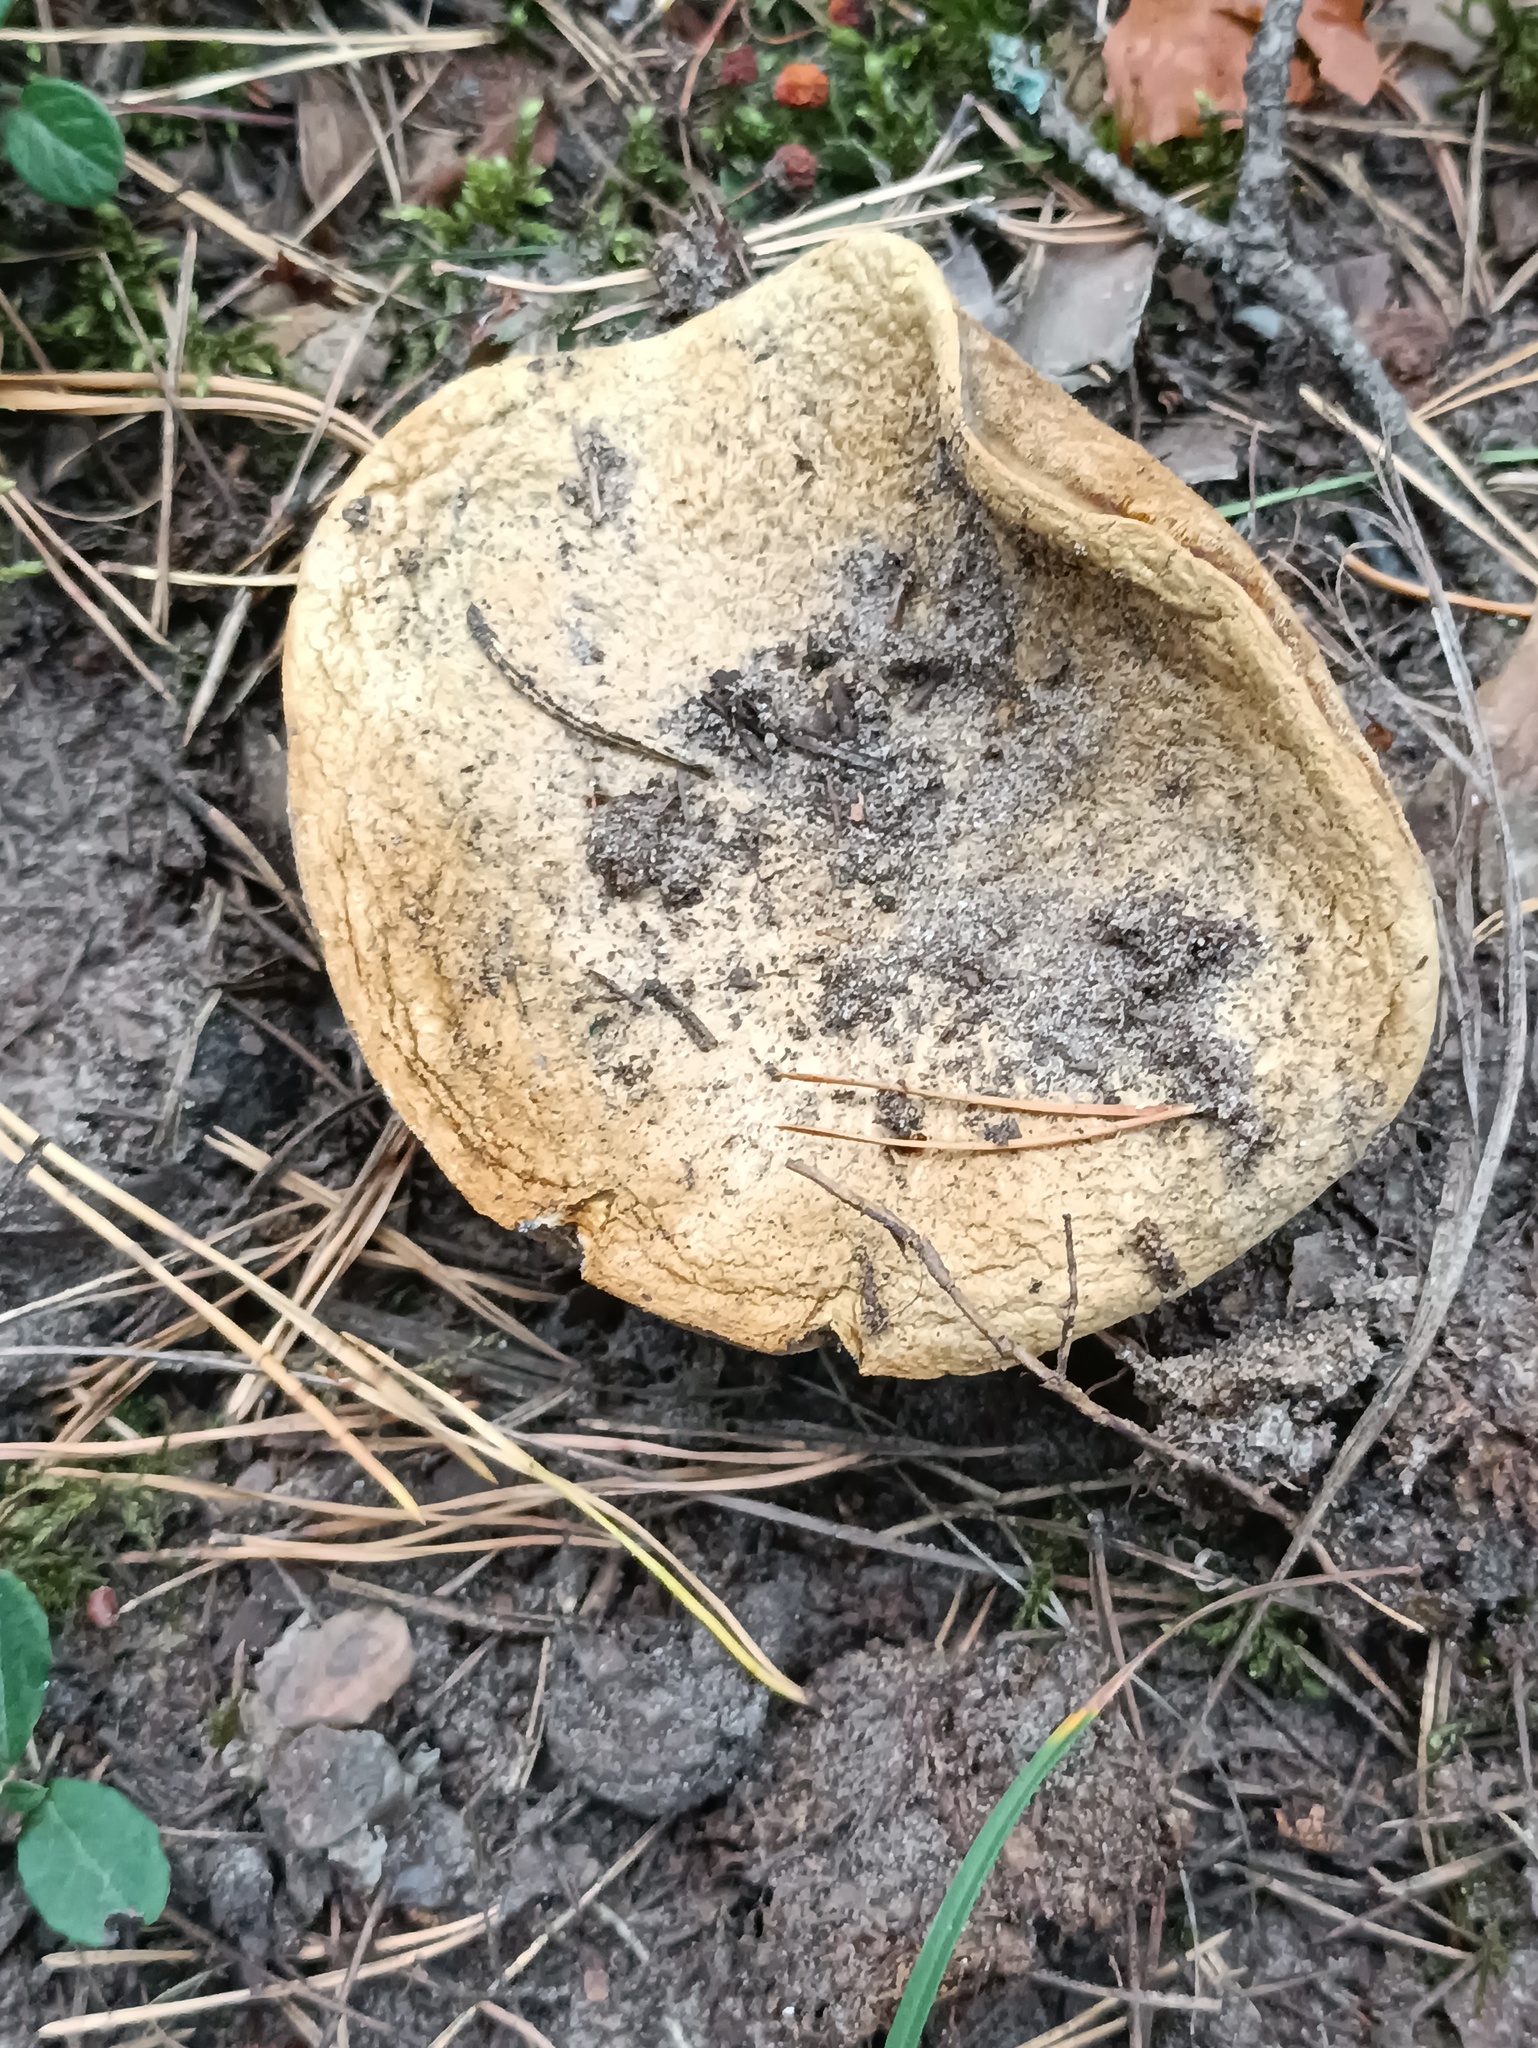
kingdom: Fungi
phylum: Basidiomycota
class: Agaricomycetes
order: Boletales
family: Gyroporaceae
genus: Gyroporus
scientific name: Gyroporus cyanescens
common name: Cornflower bolete
